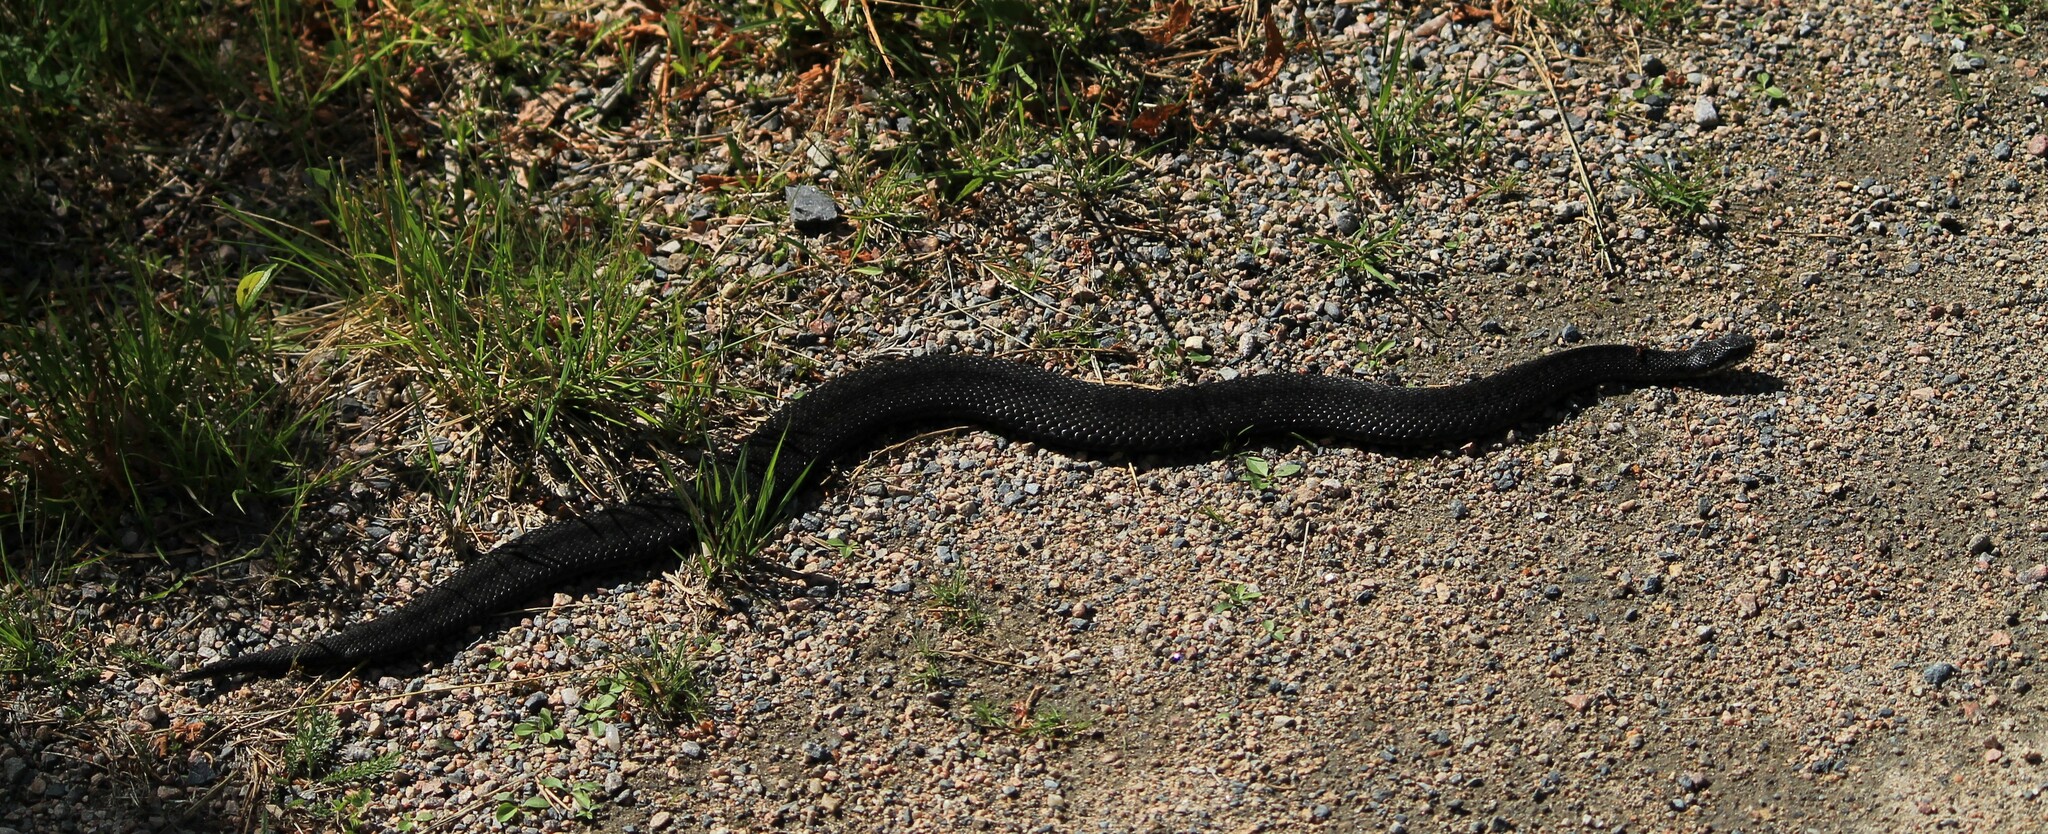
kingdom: Animalia
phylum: Chordata
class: Squamata
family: Viperidae
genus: Vipera
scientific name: Vipera berus
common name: Adder
